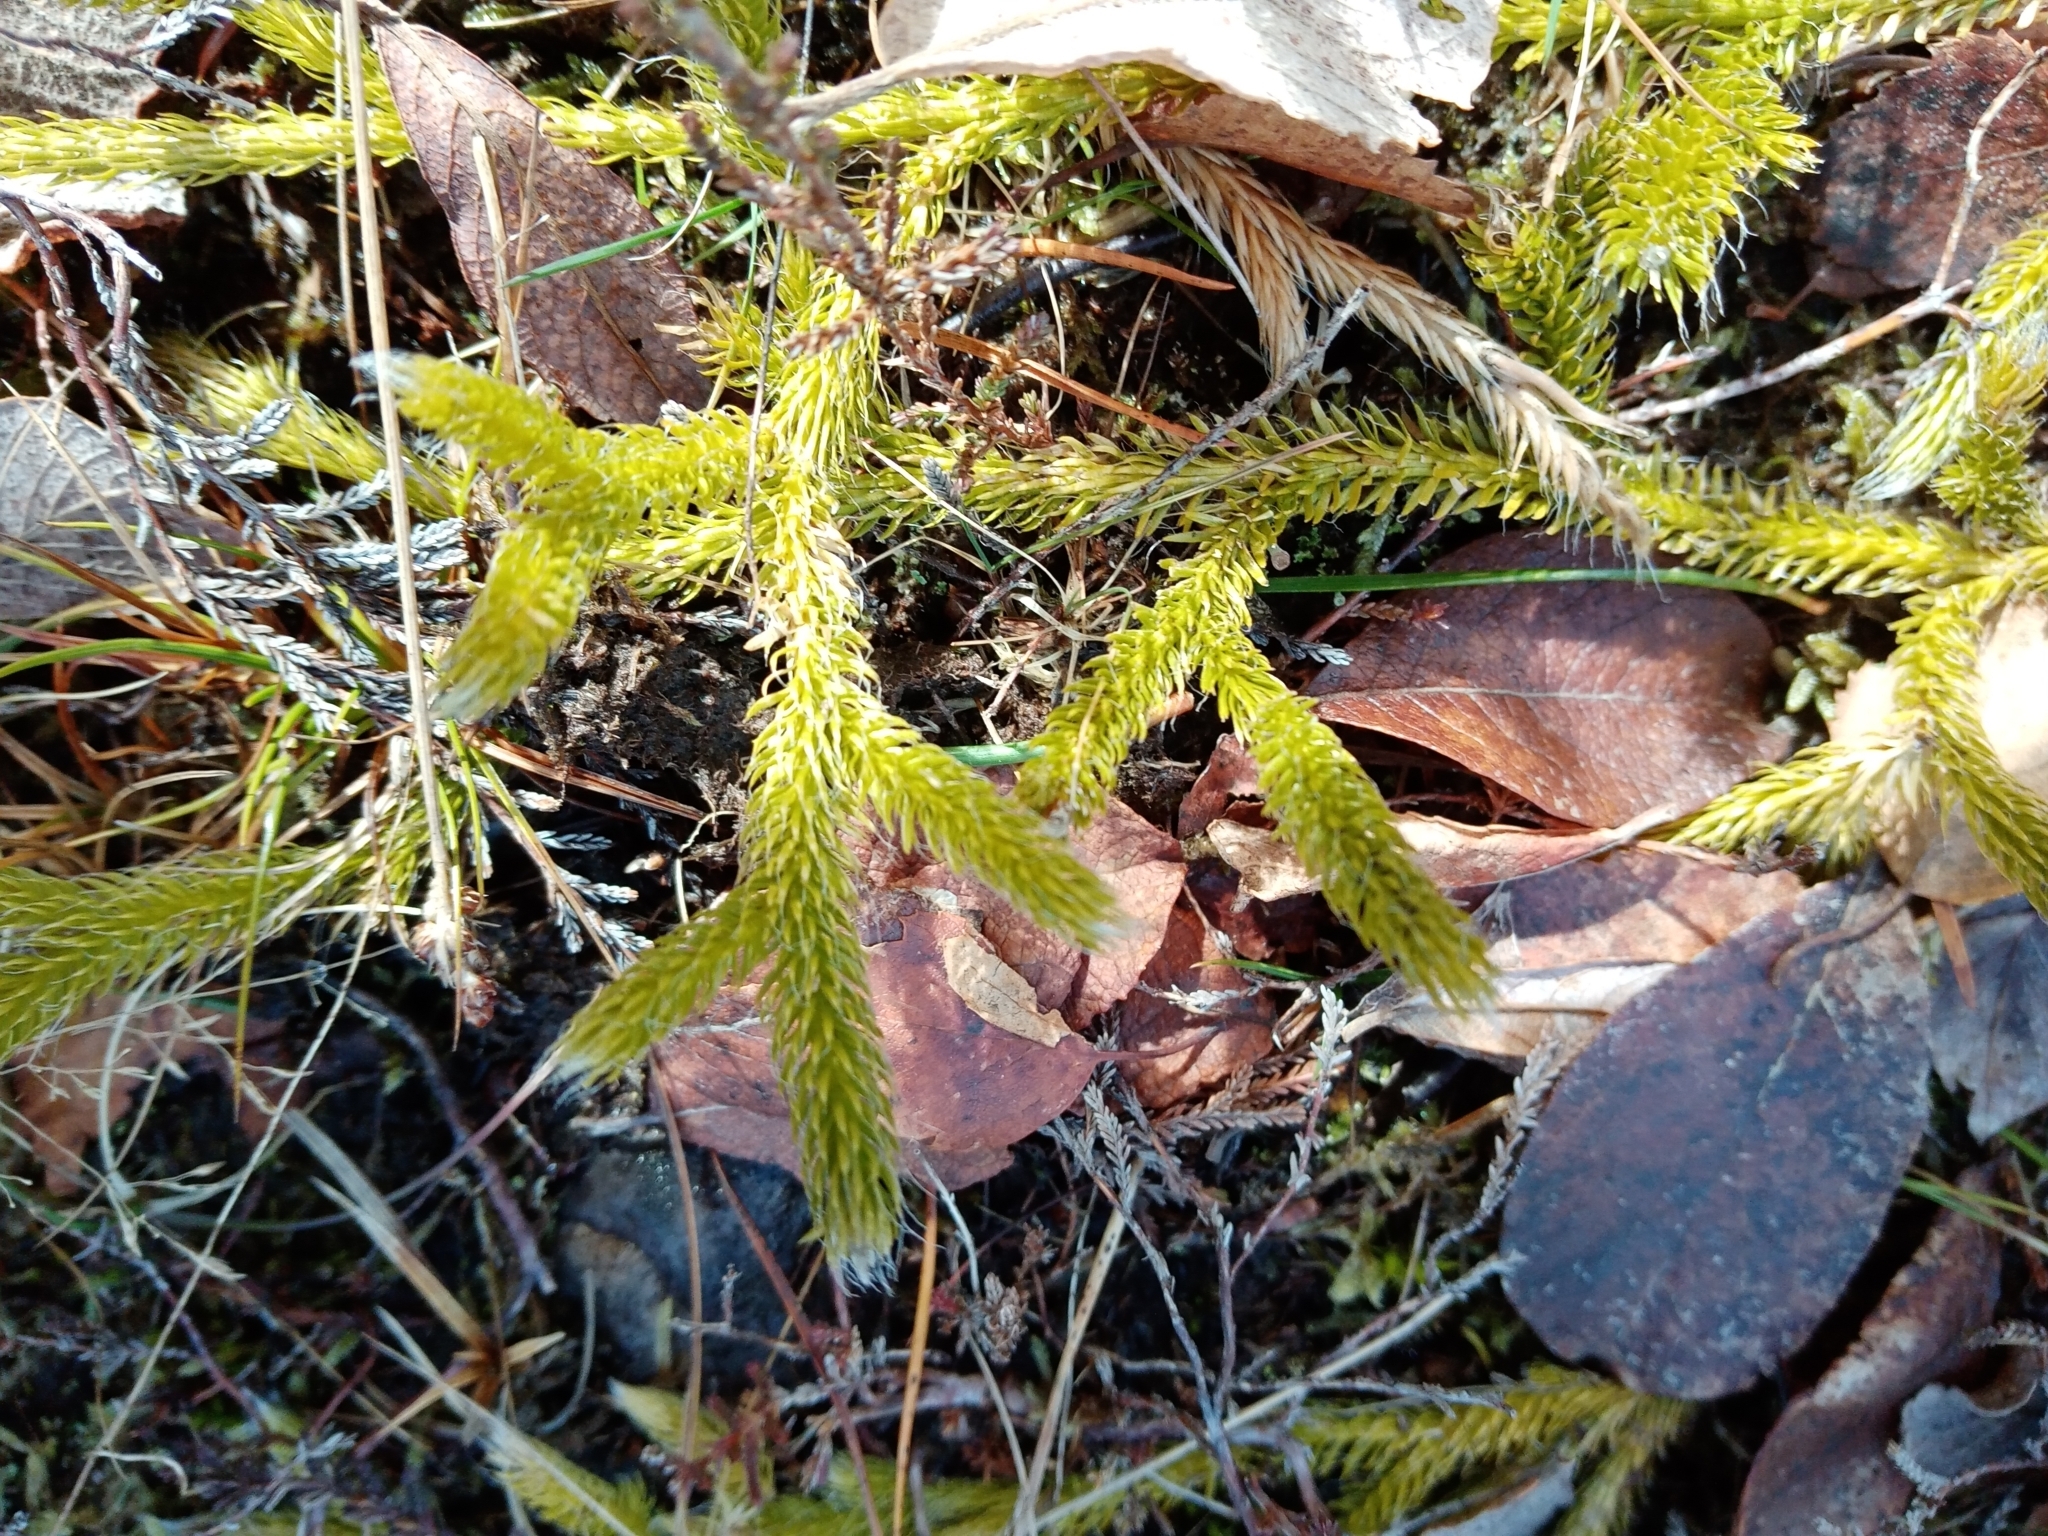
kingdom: Plantae
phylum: Tracheophyta
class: Lycopodiopsida
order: Lycopodiales
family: Lycopodiaceae
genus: Lycopodium
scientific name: Lycopodium clavatum
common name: Stag's-horn clubmoss
